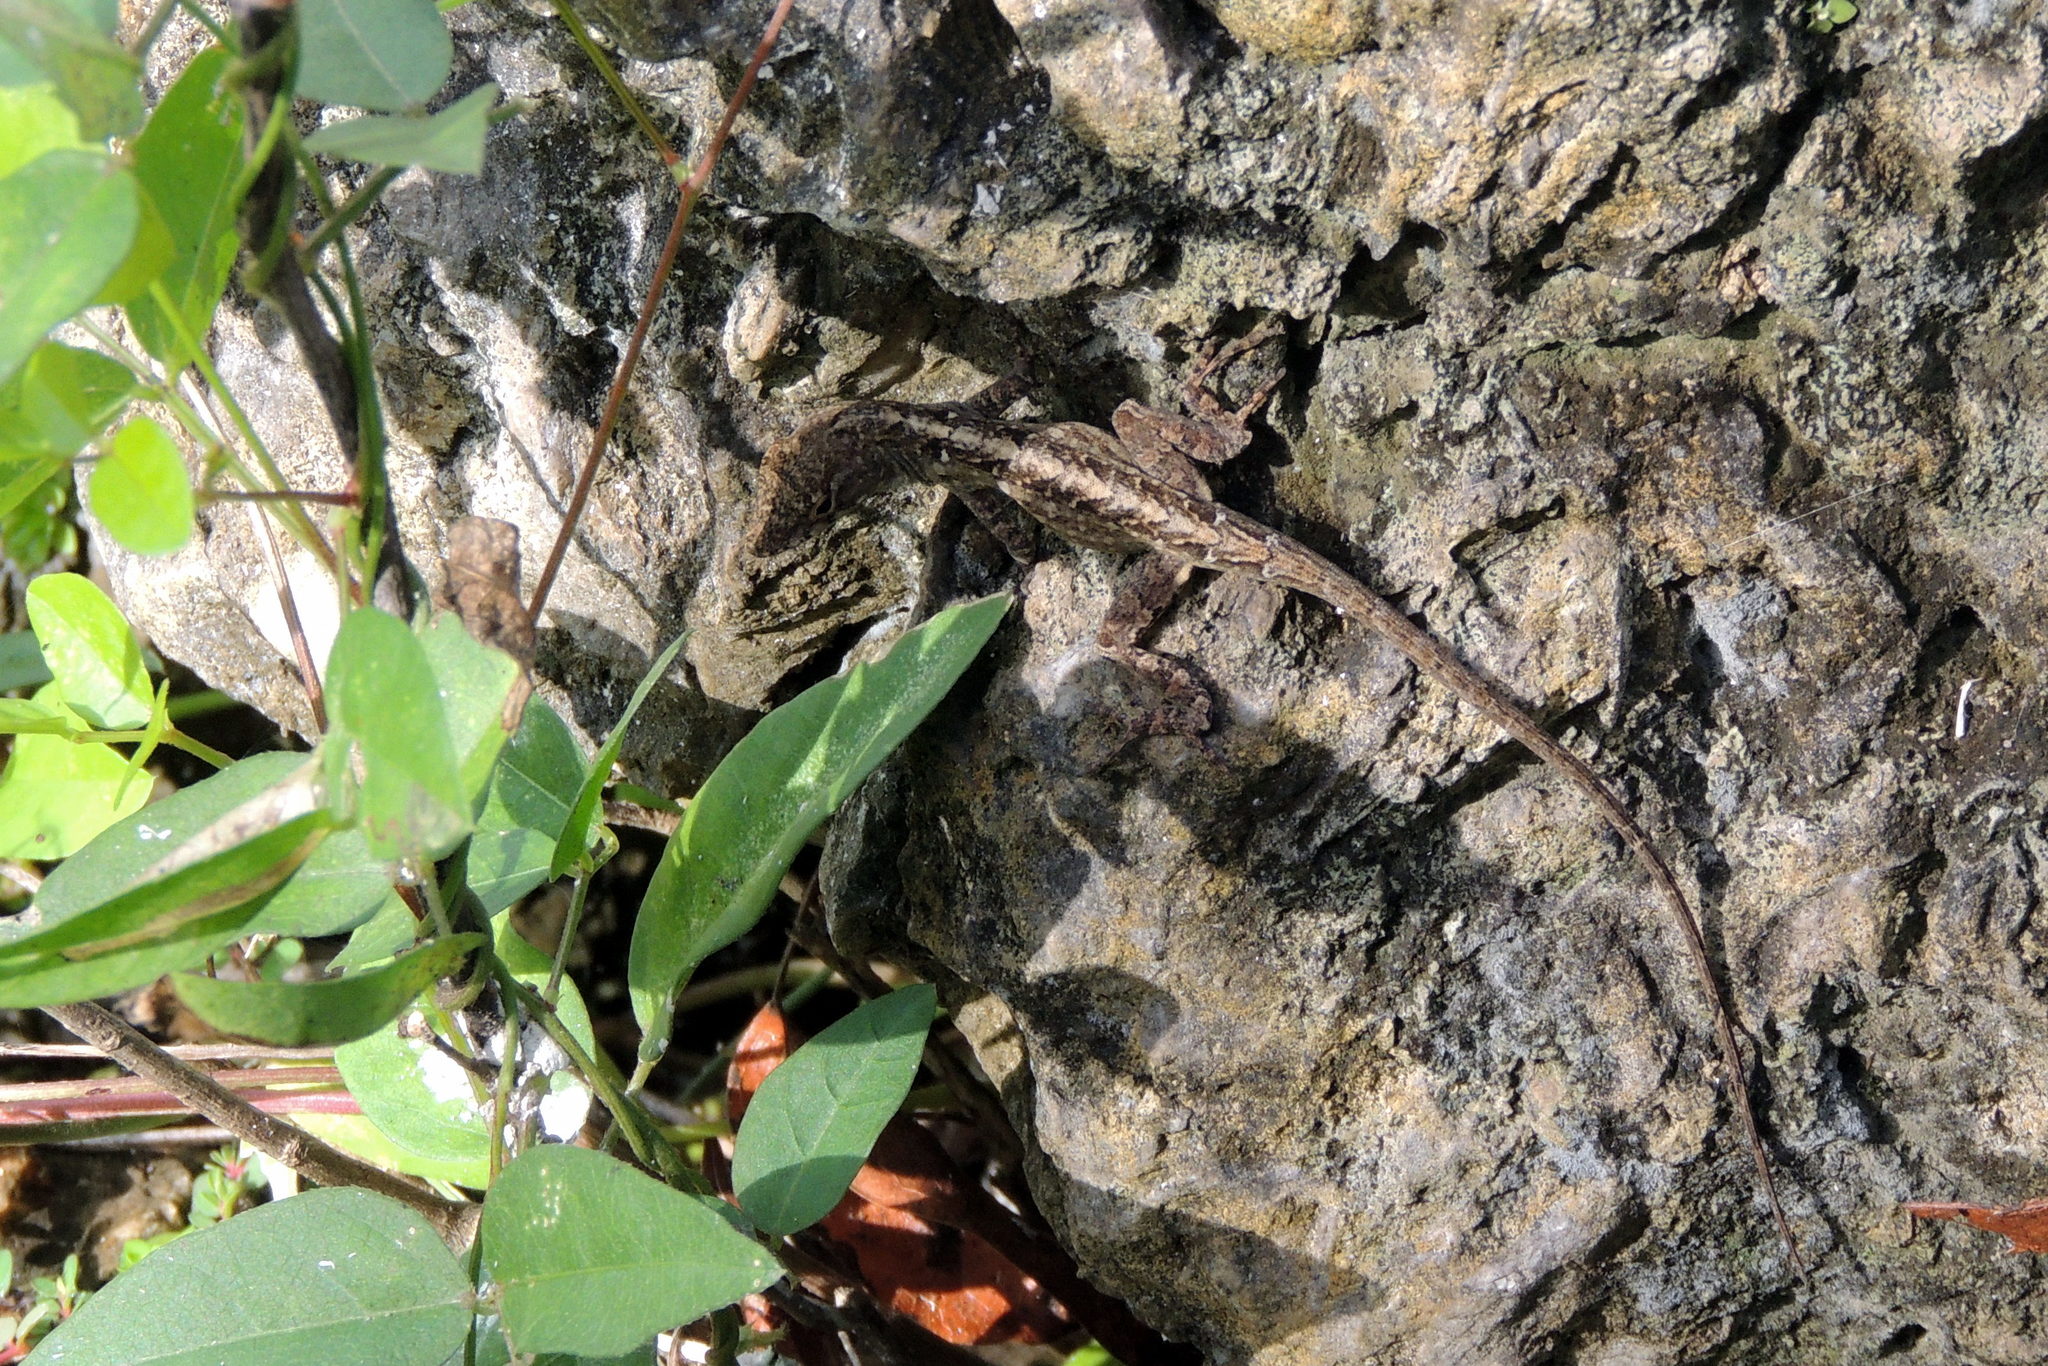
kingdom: Animalia
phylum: Chordata
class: Squamata
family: Dactyloidae
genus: Anolis
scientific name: Anolis sagrei
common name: Brown anole
